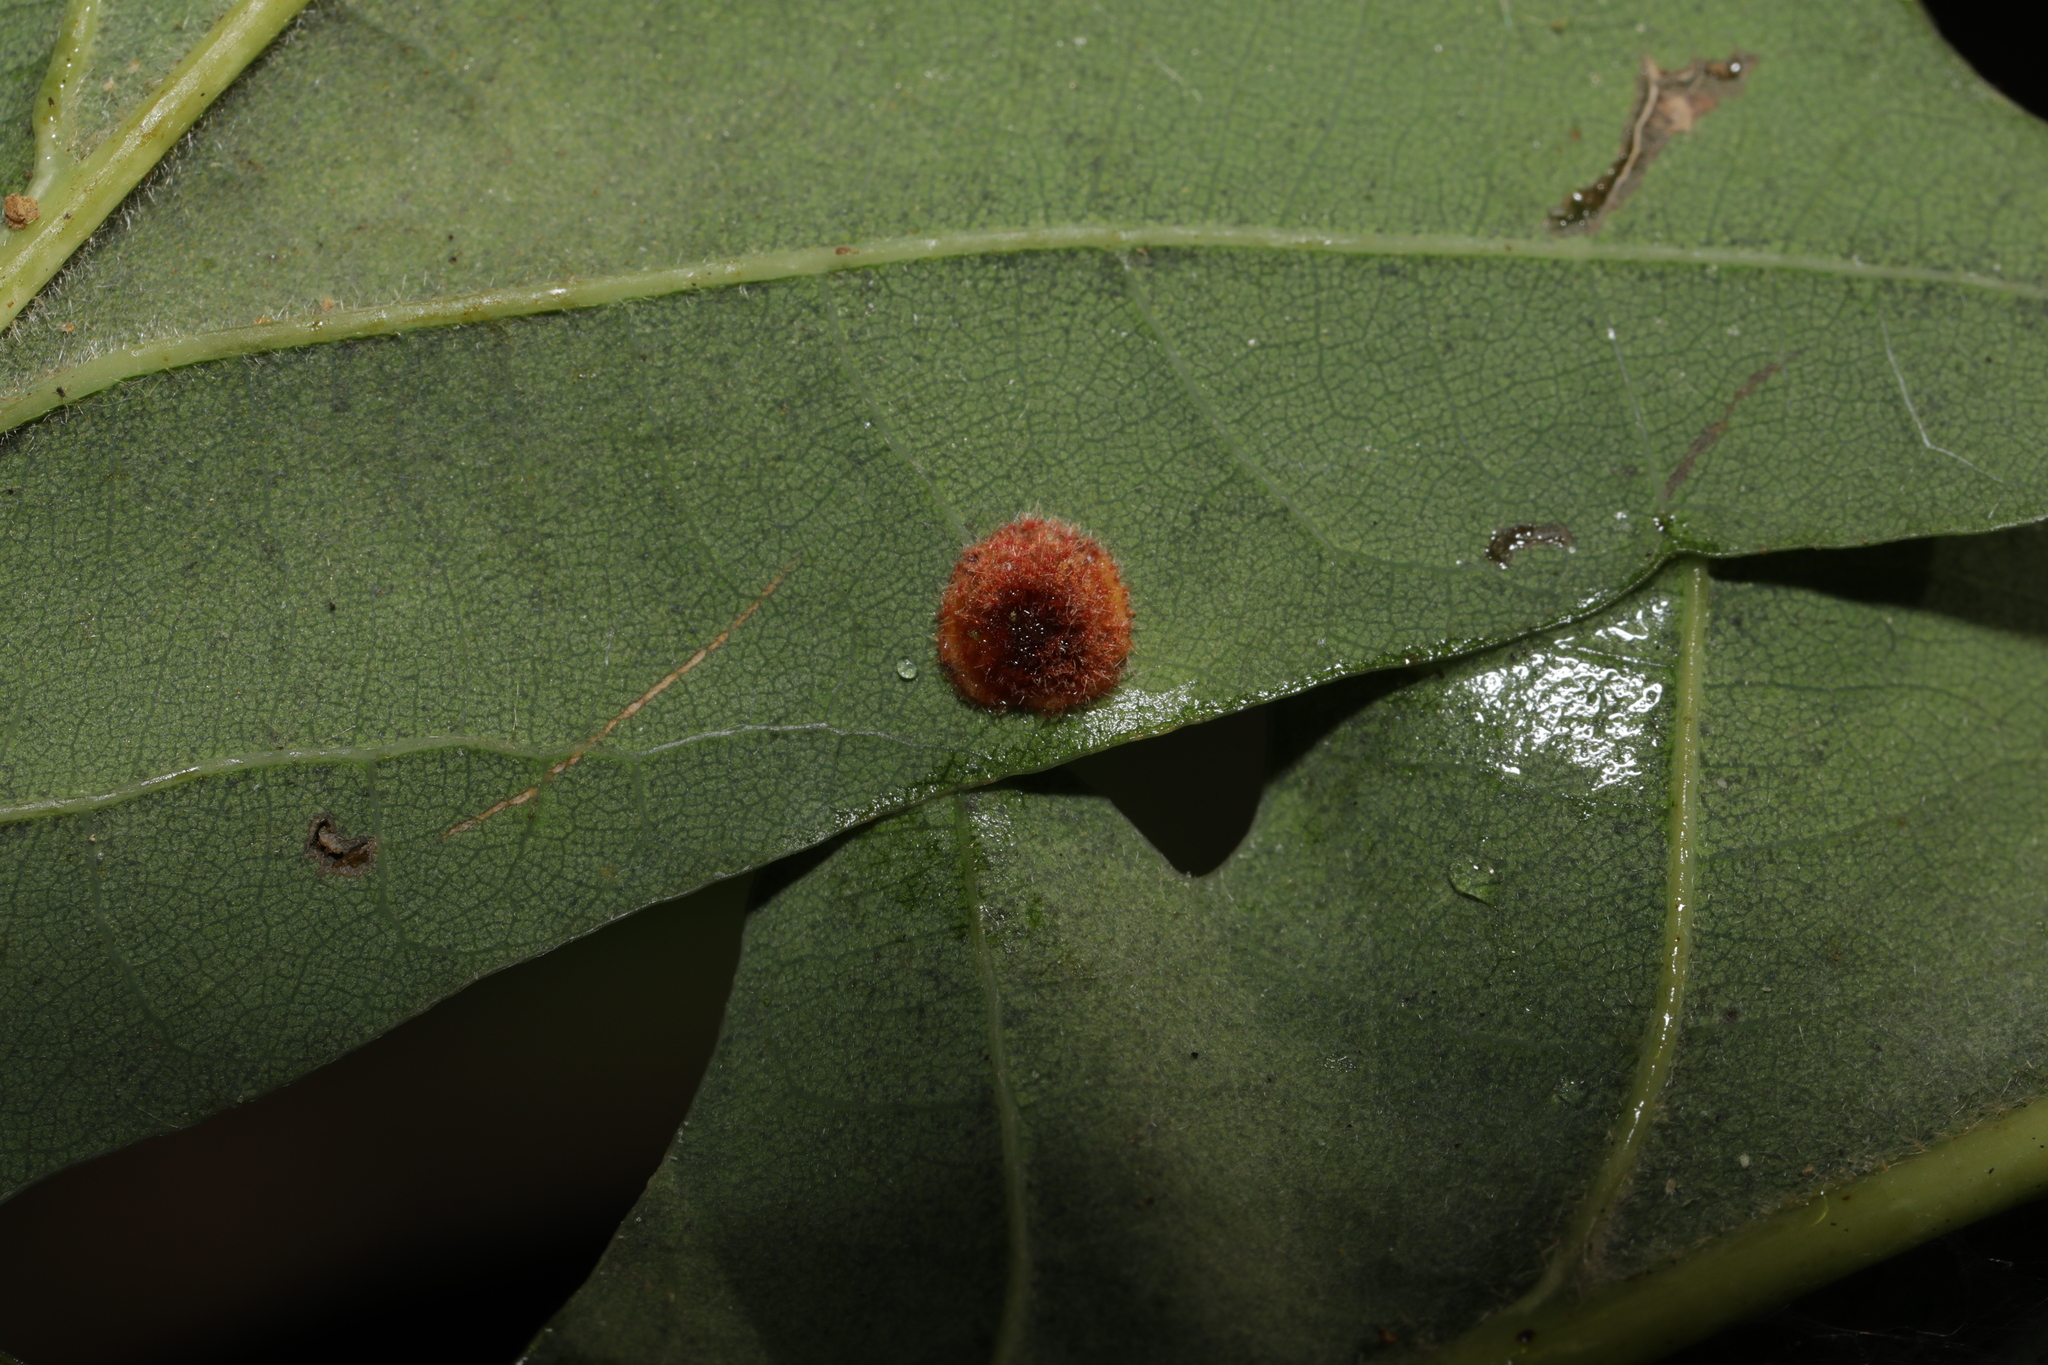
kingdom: Animalia
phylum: Arthropoda
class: Insecta
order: Hymenoptera
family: Cynipidae
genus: Neuroterus
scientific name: Neuroterus quercusbaccarum
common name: Common spangle gall
